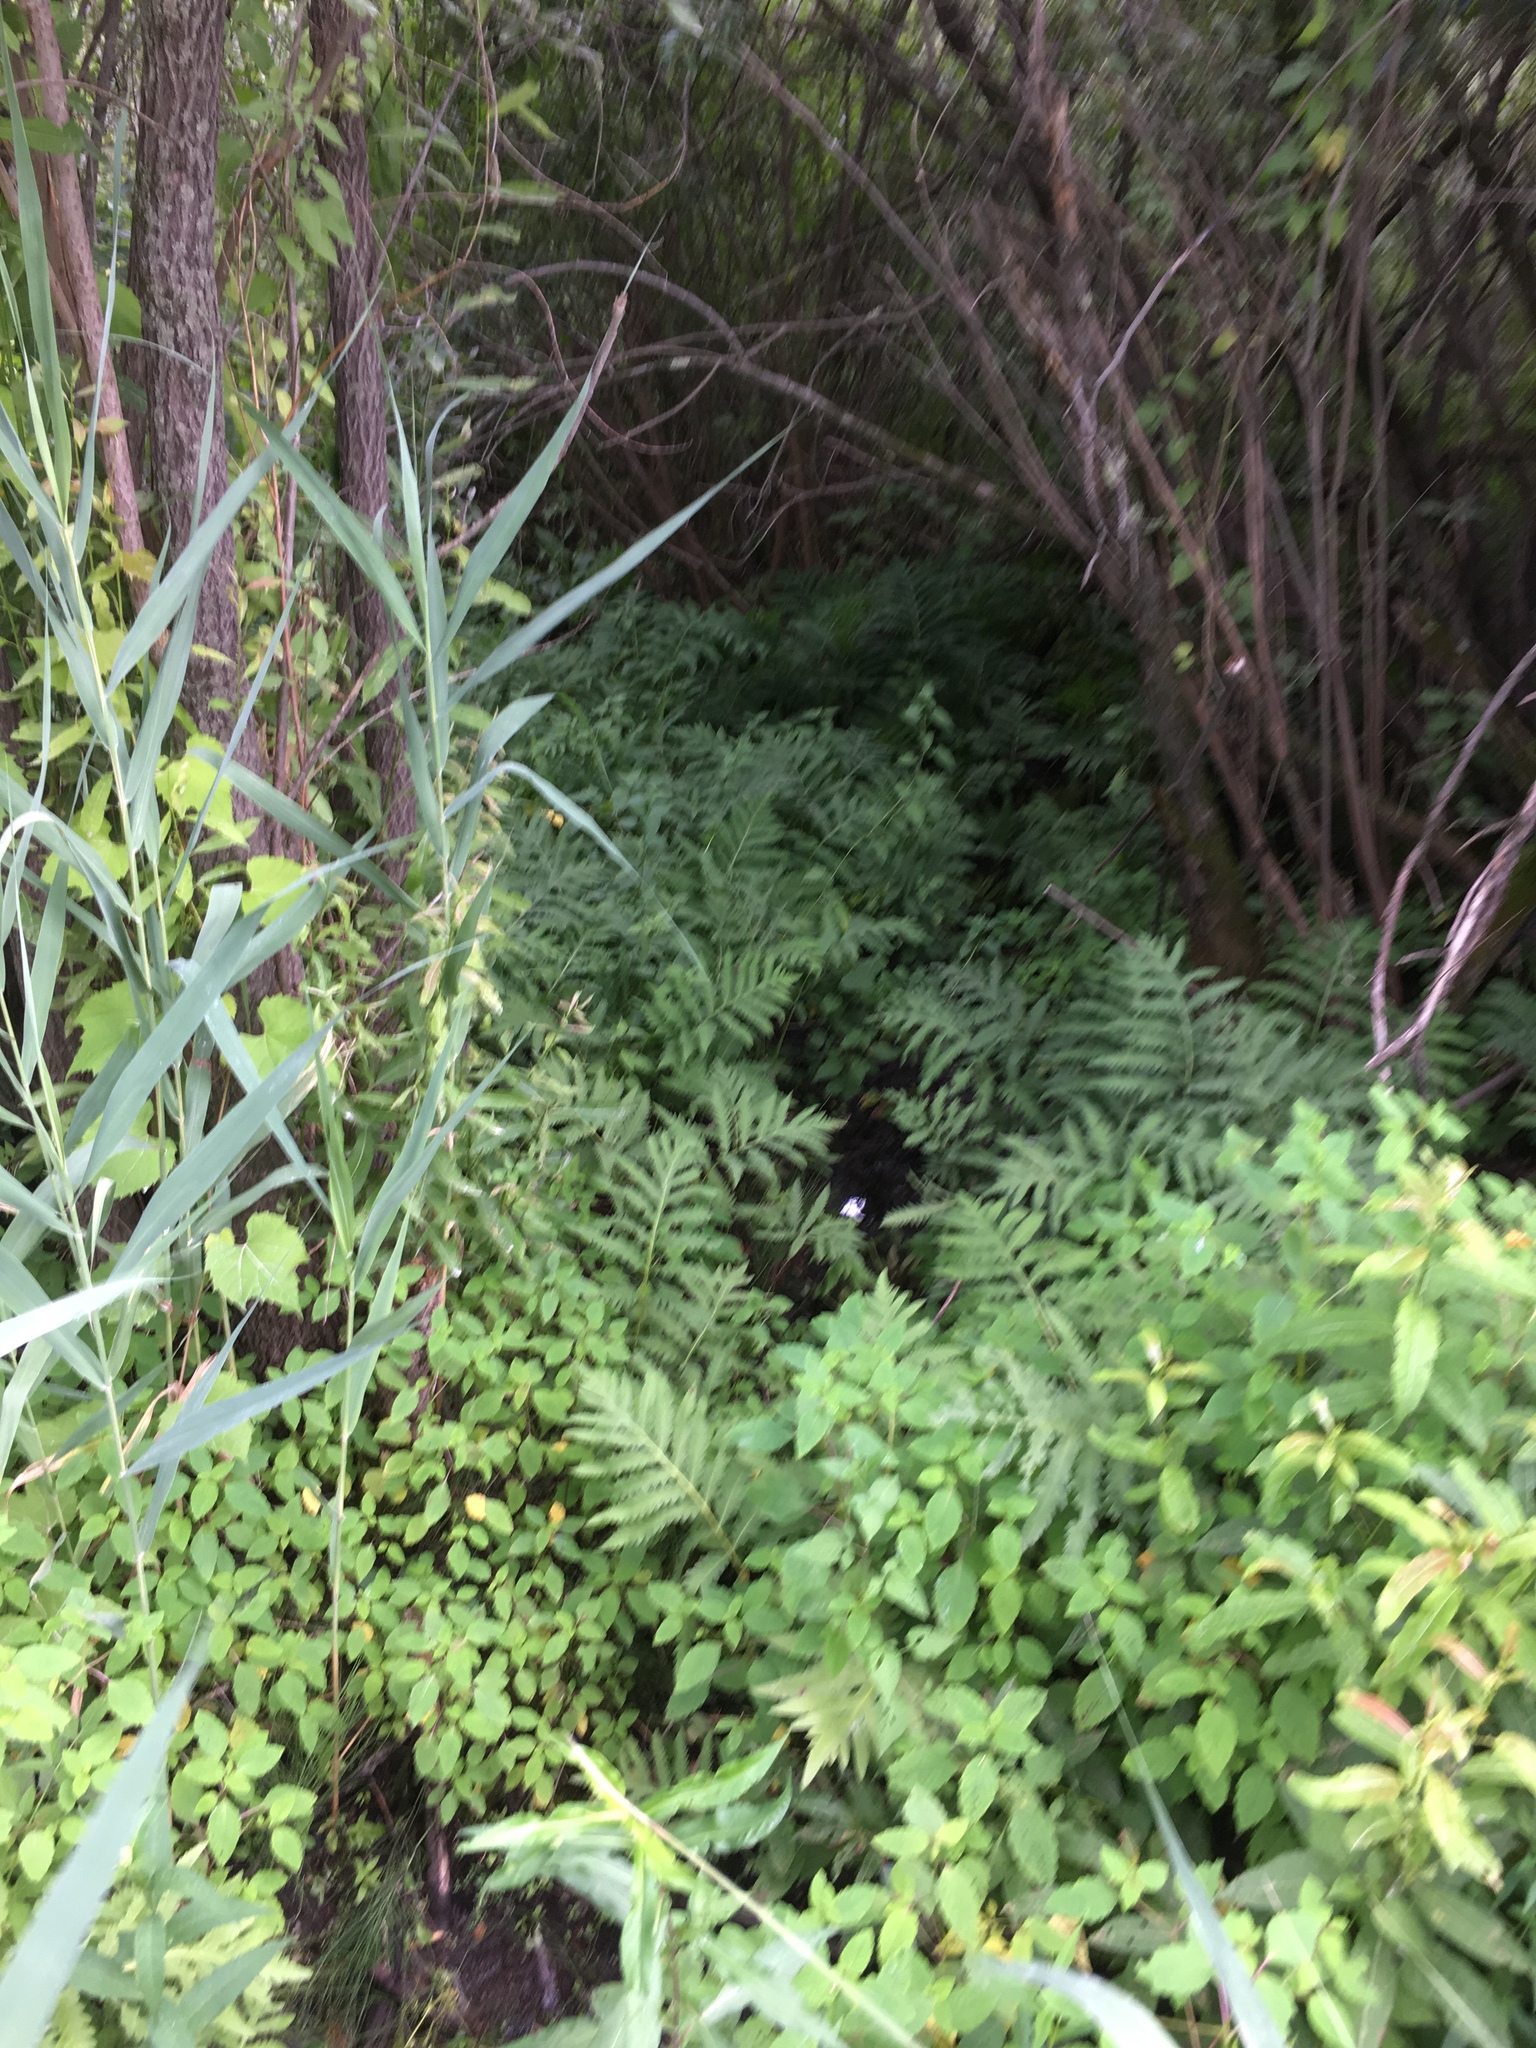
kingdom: Plantae
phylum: Tracheophyta
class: Polypodiopsida
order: Polypodiales
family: Onocleaceae
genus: Onoclea
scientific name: Onoclea sensibilis
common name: Sensitive fern
